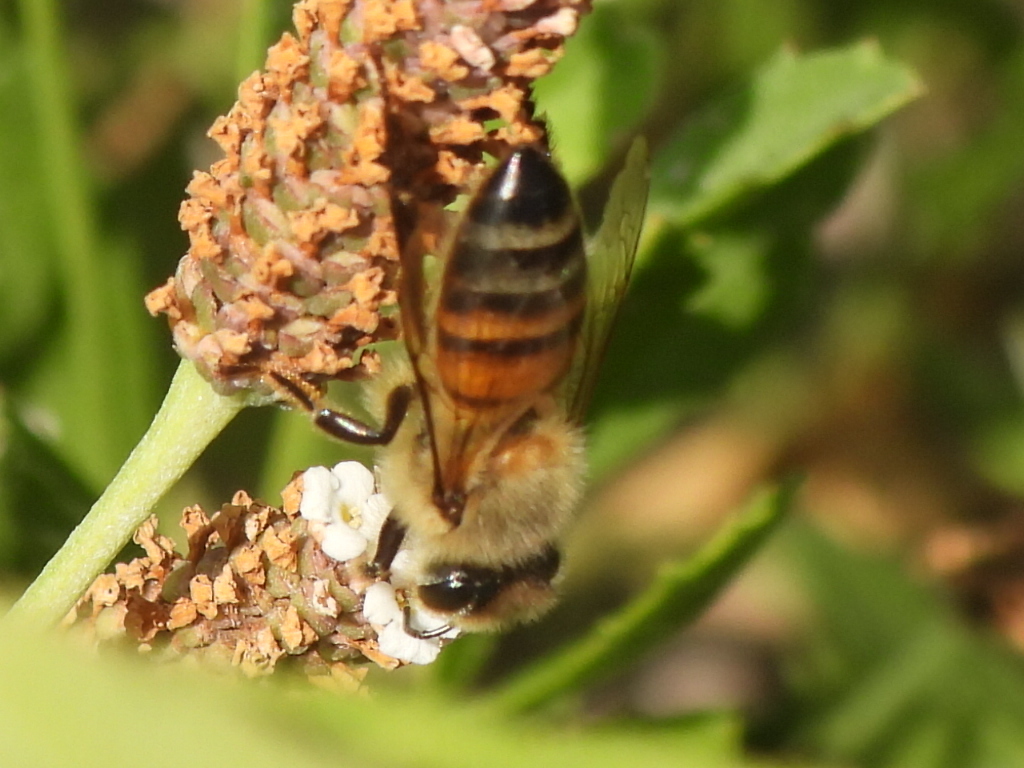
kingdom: Animalia
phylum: Arthropoda
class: Insecta
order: Hymenoptera
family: Apidae
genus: Apis
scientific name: Apis mellifera
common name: Honey bee
